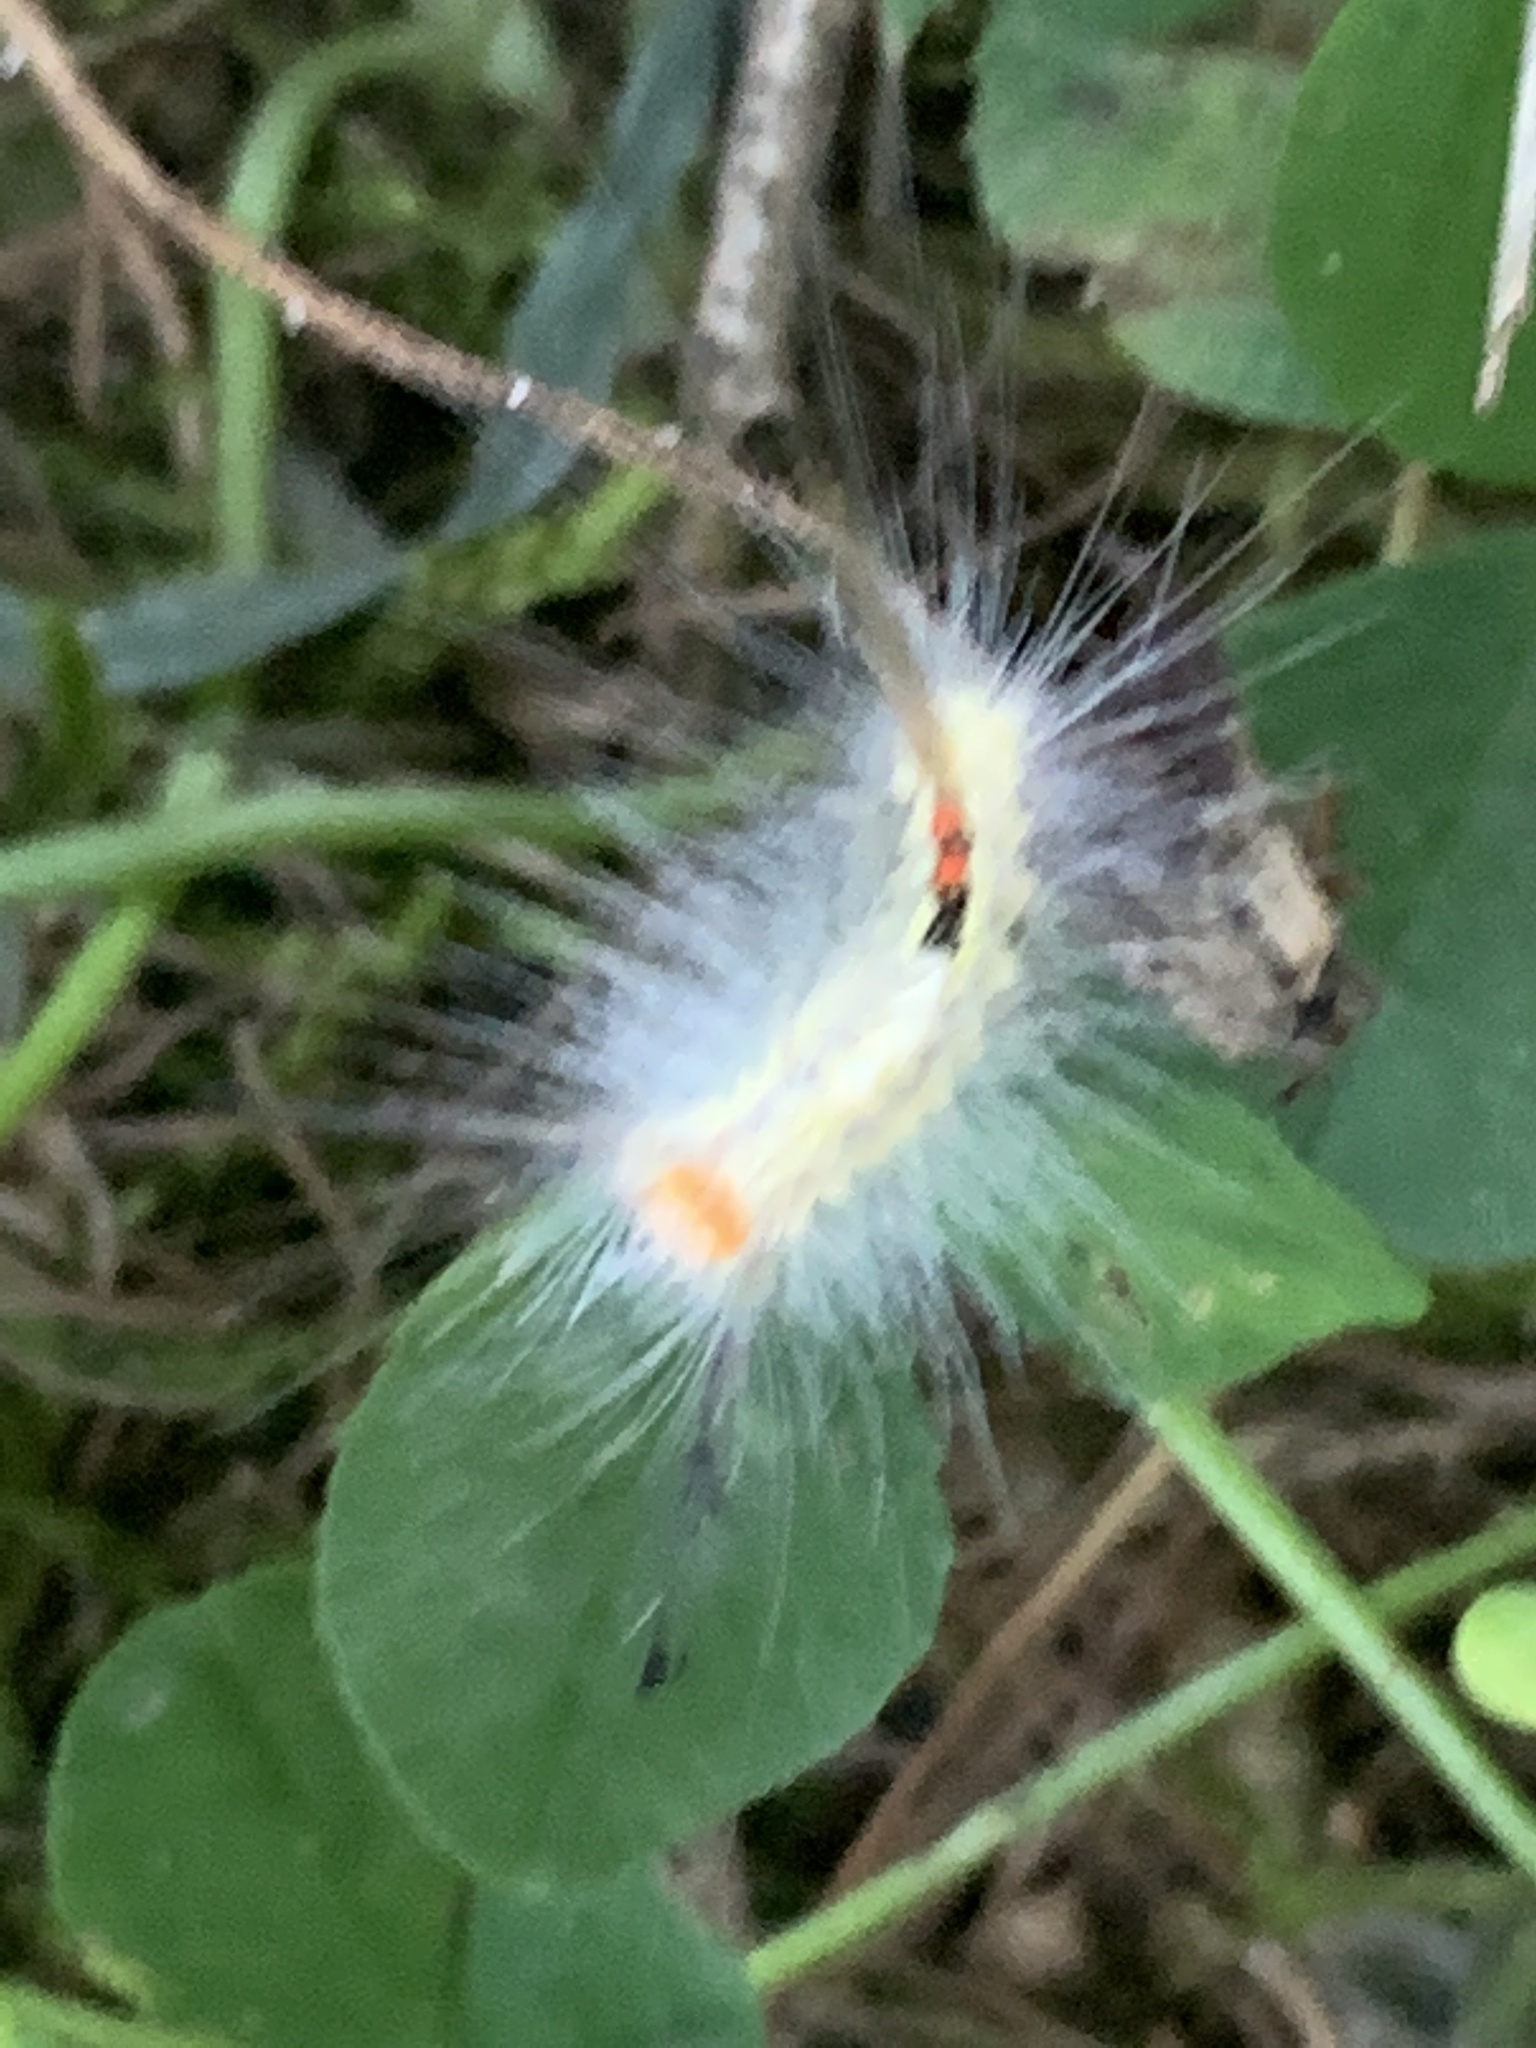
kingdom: Animalia
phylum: Arthropoda
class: Insecta
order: Lepidoptera
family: Erebidae
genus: Orgyia
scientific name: Orgyia leucostigma
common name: White-marked tussock moth
